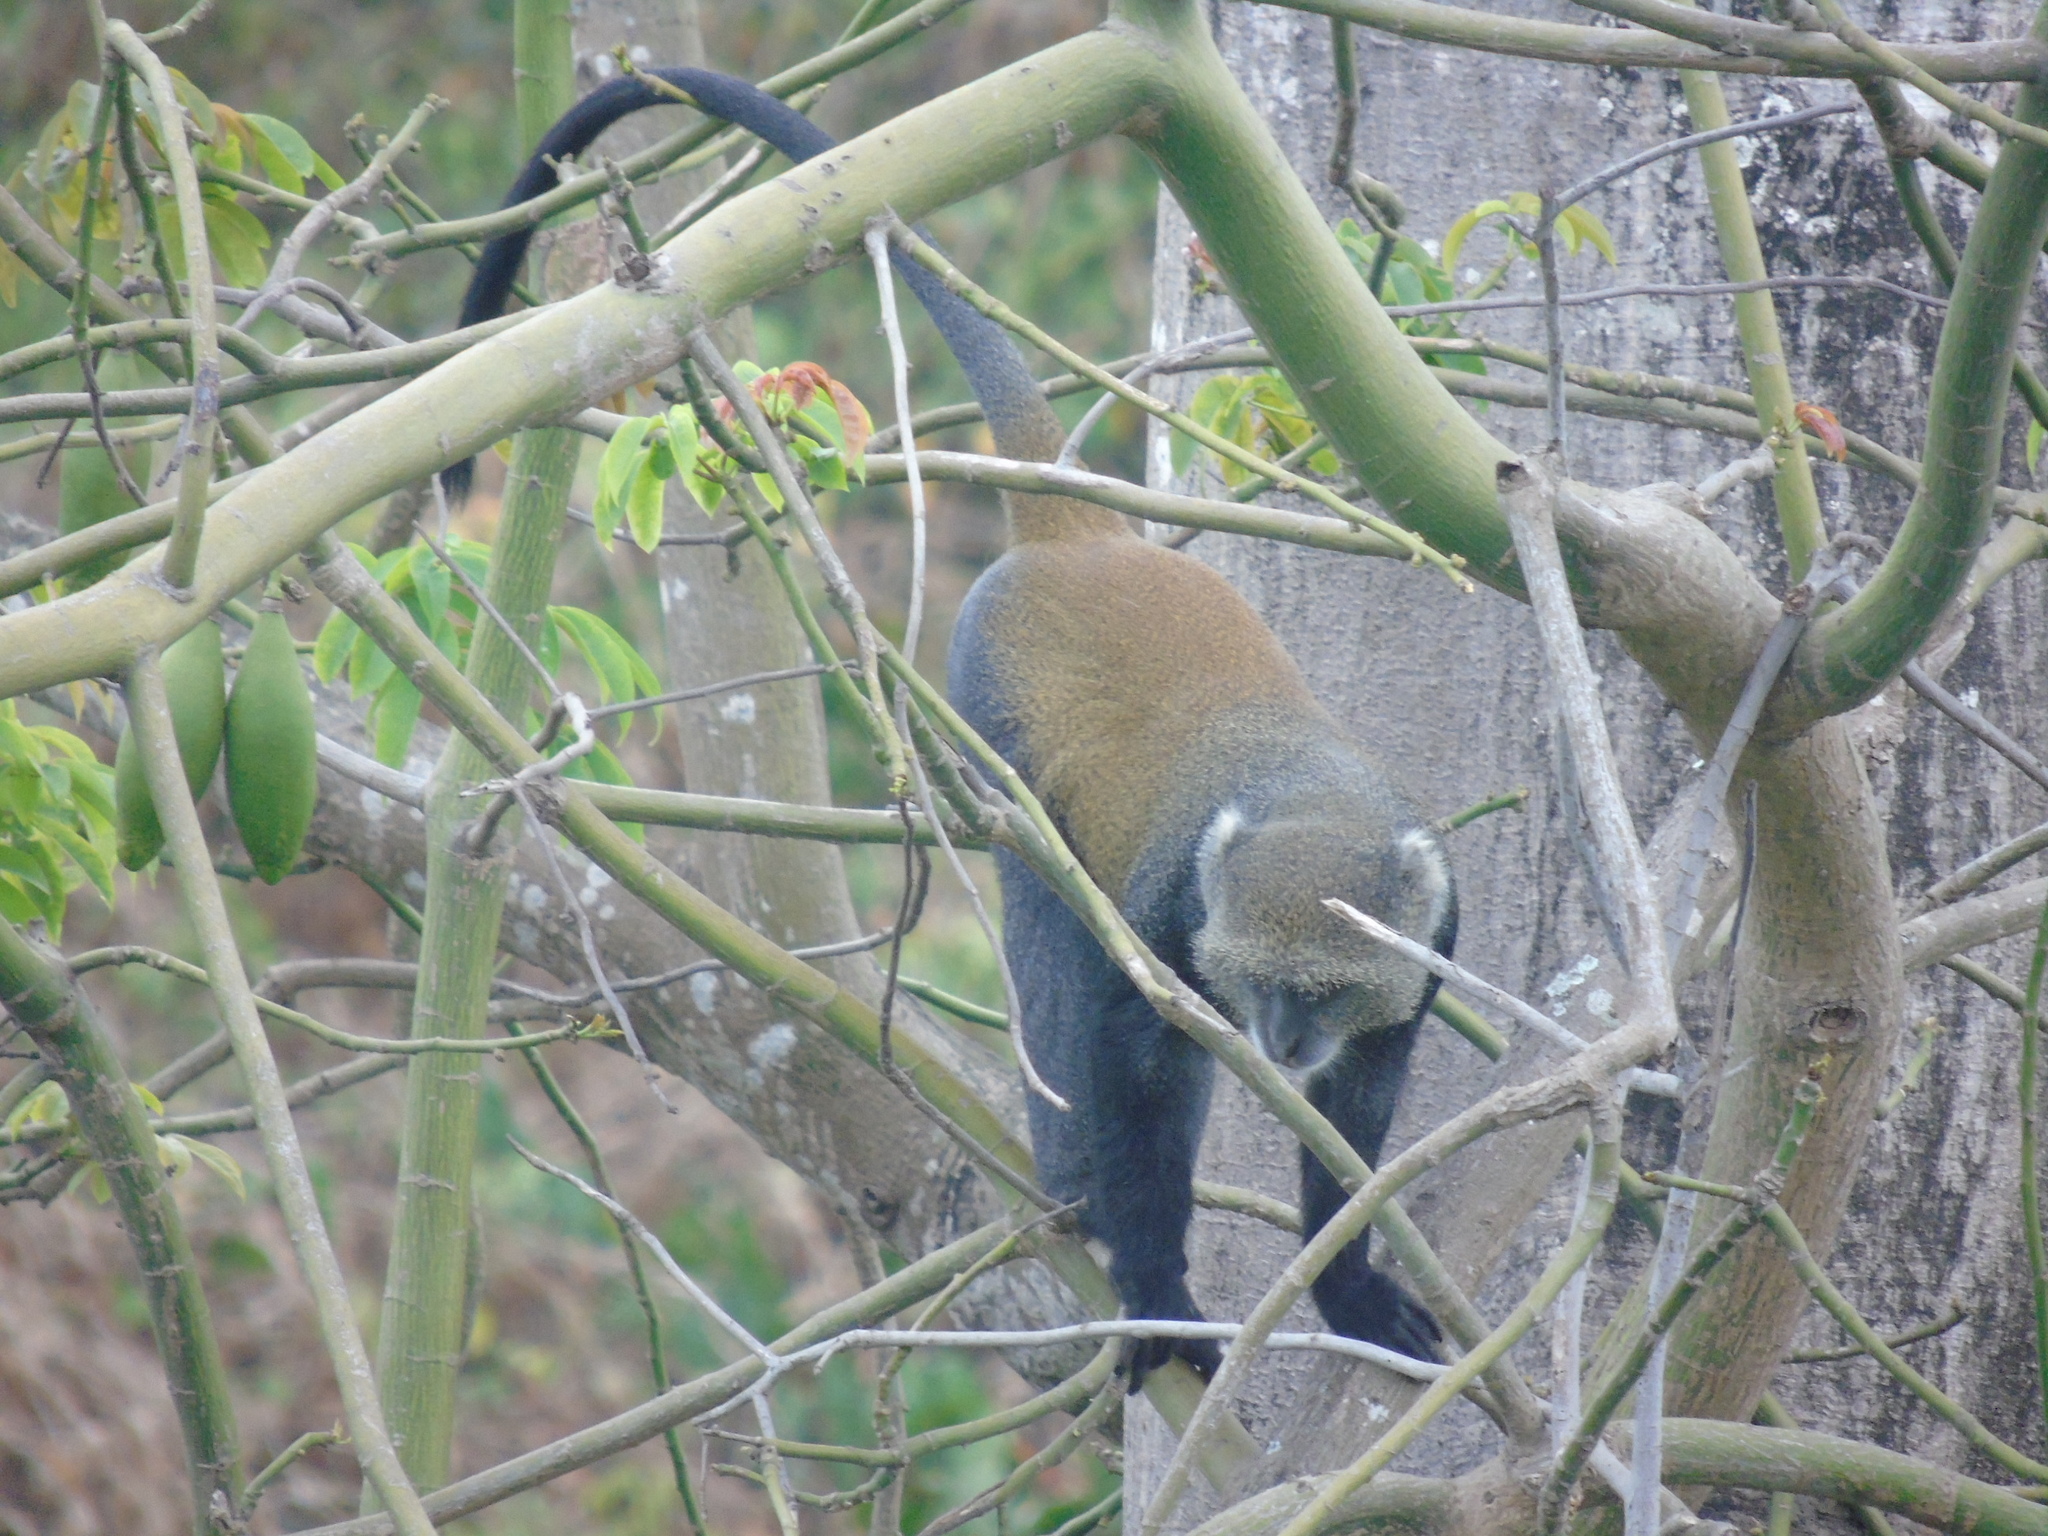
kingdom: Animalia
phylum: Chordata
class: Mammalia
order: Primates
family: Cercopithecidae
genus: Cercopithecus
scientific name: Cercopithecus mitis
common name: Blue monkey
